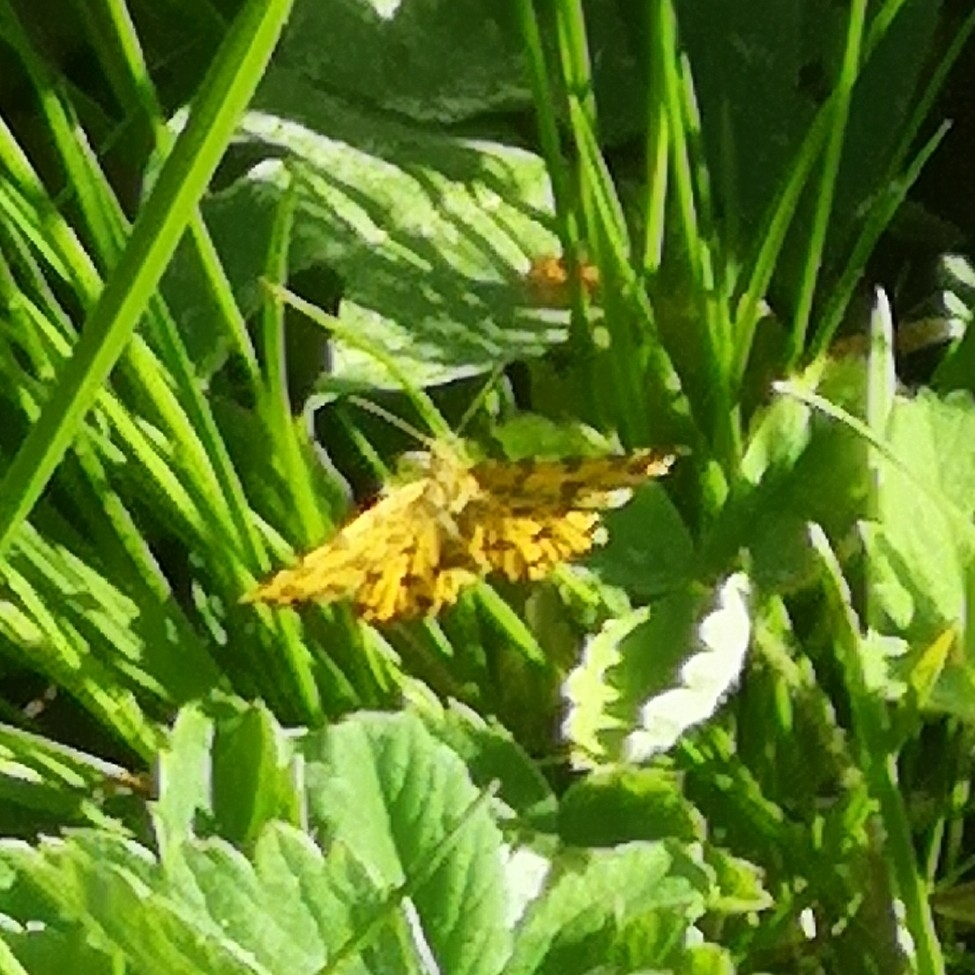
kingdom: Animalia
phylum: Arthropoda
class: Insecta
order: Lepidoptera
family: Geometridae
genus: Pseudopanthera
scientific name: Pseudopanthera macularia
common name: Speckled yellow
